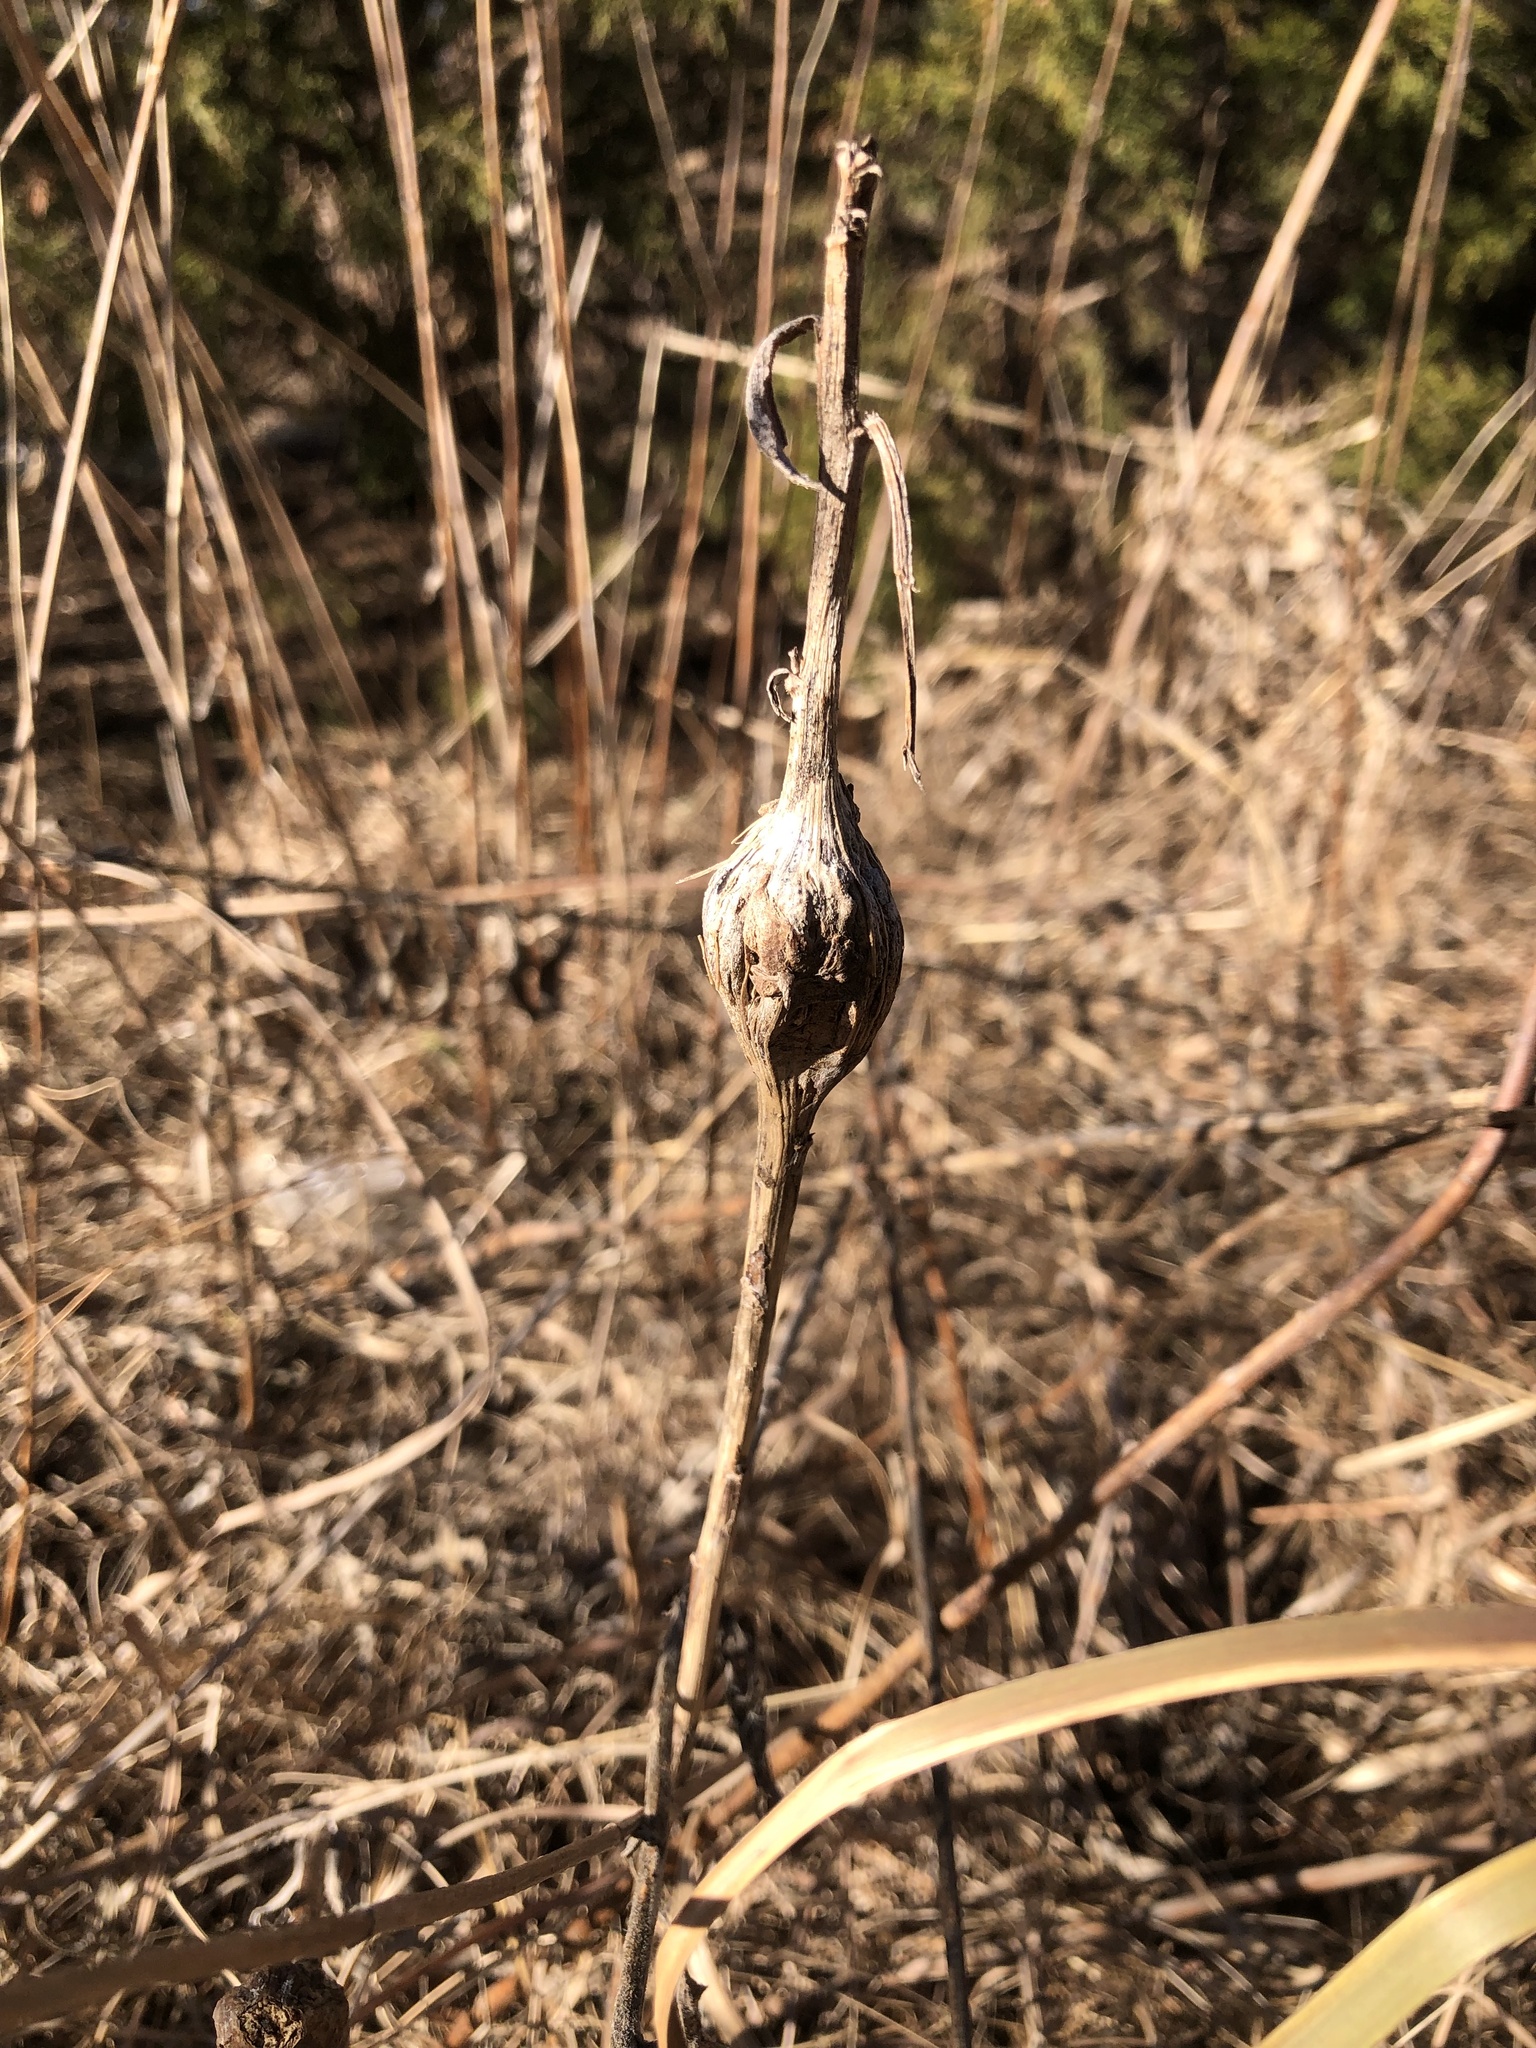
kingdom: Animalia
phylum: Arthropoda
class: Insecta
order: Diptera
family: Tephritidae
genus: Eurosta
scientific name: Eurosta solidaginis
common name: Goldenrod gall fly
